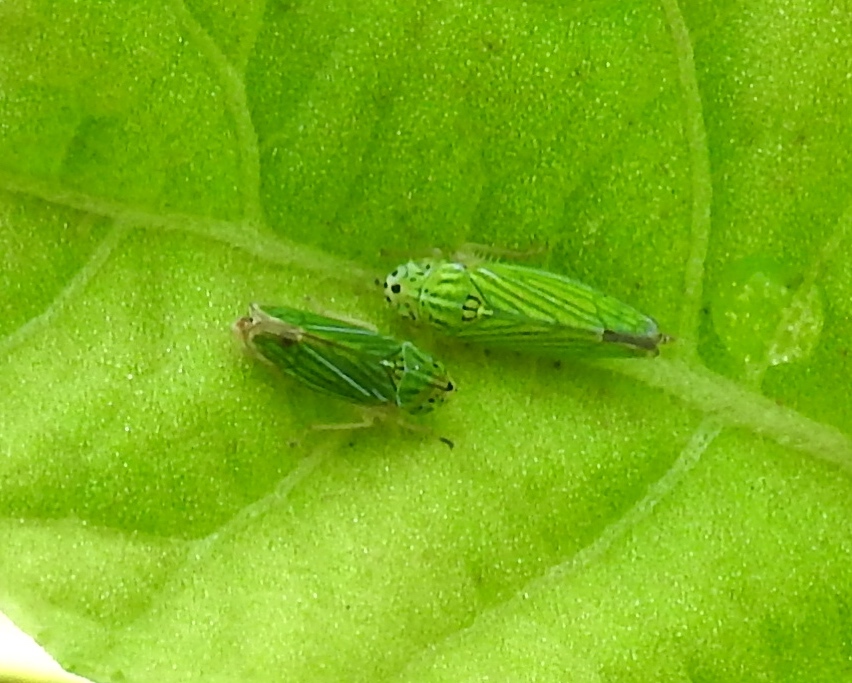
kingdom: Animalia
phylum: Arthropoda
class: Insecta
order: Hemiptera
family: Cicadellidae
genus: Graphocephala
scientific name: Graphocephala cythura
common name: Leafhopper
